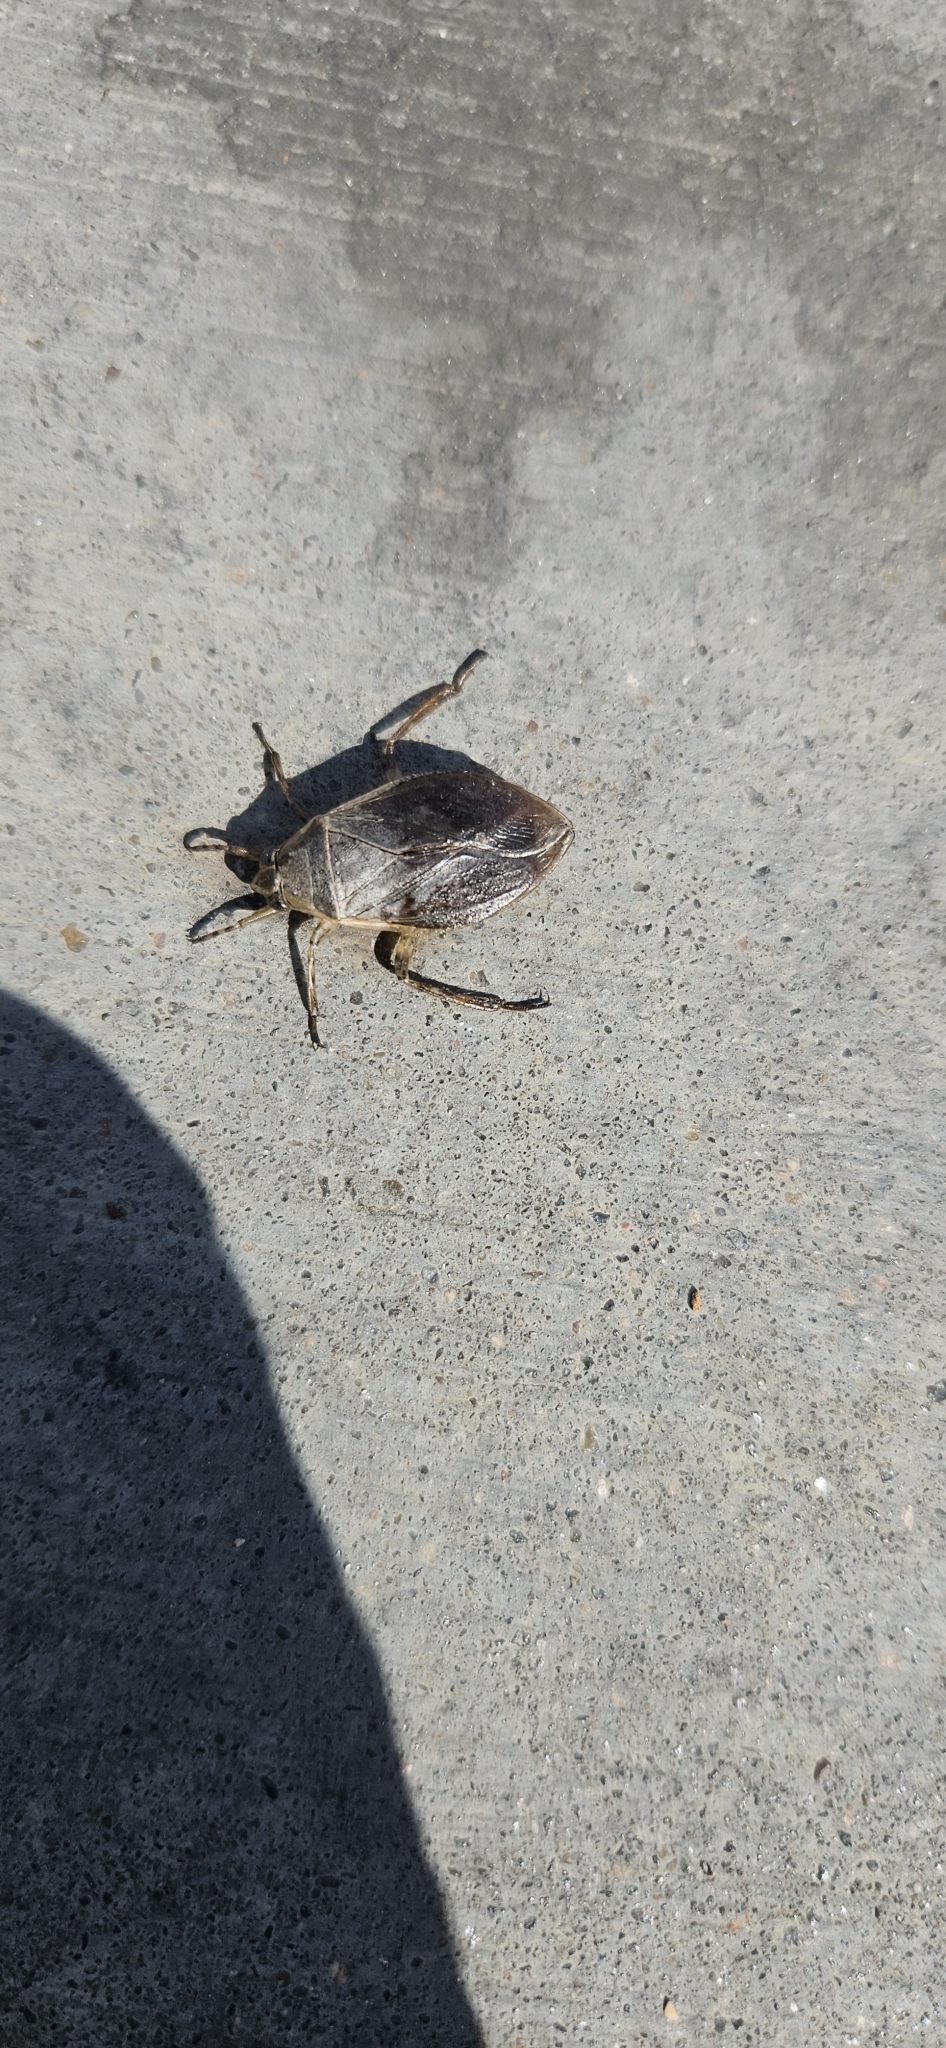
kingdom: Animalia
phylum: Arthropoda
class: Insecta
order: Hemiptera
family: Belostomatidae
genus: Belostoma
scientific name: Belostoma flumineum
